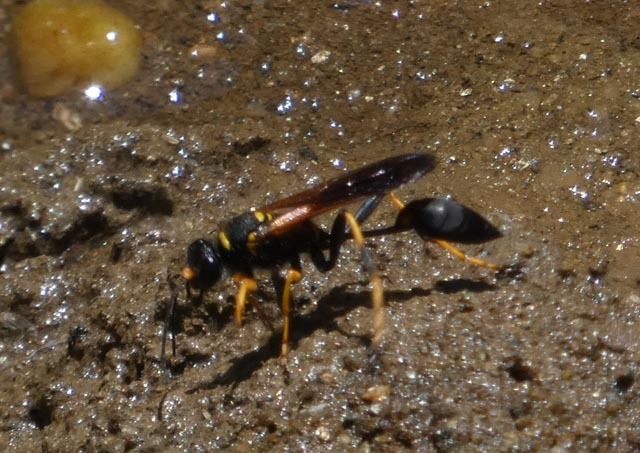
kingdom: Animalia
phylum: Arthropoda
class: Insecta
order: Hymenoptera
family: Sphecidae
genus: Sceliphron
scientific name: Sceliphron caementarium
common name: Mud dauber
